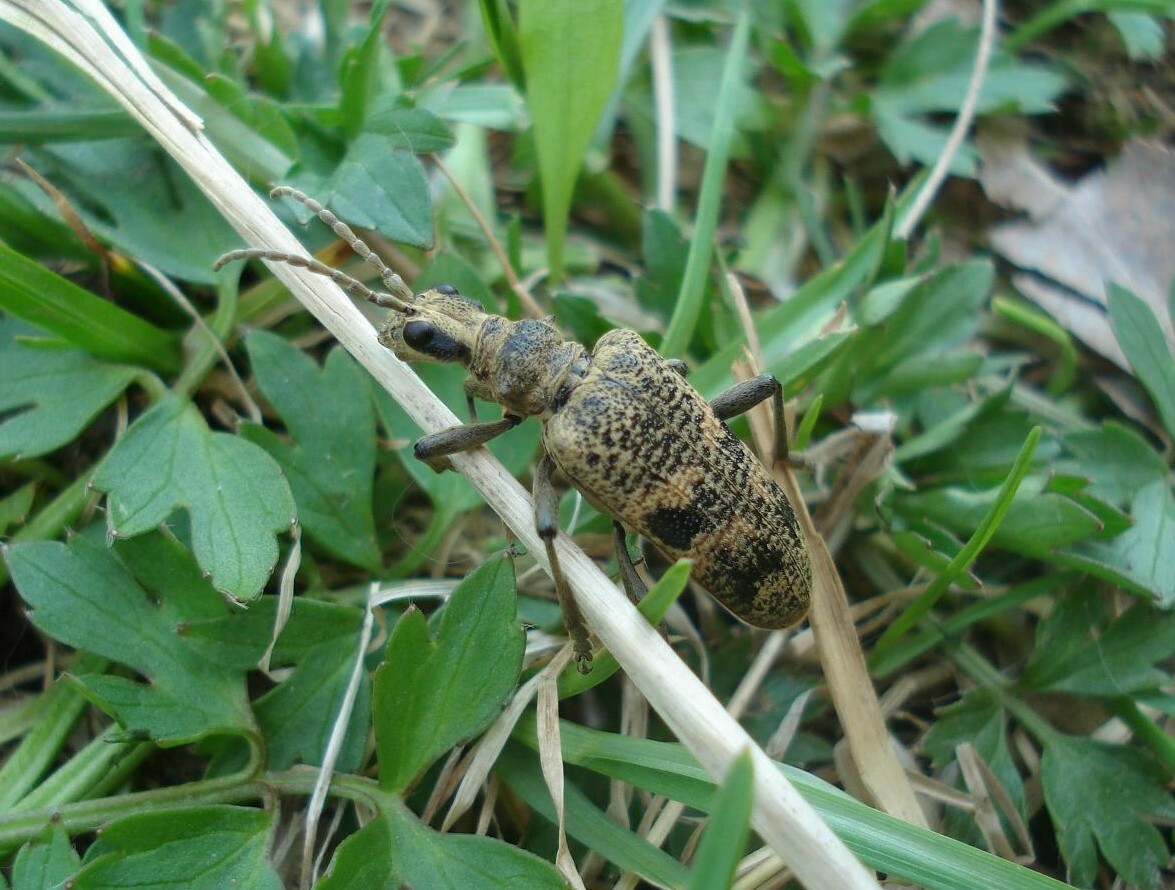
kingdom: Animalia
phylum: Arthropoda
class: Insecta
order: Coleoptera
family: Cerambycidae
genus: Rhagium
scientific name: Rhagium mordax
